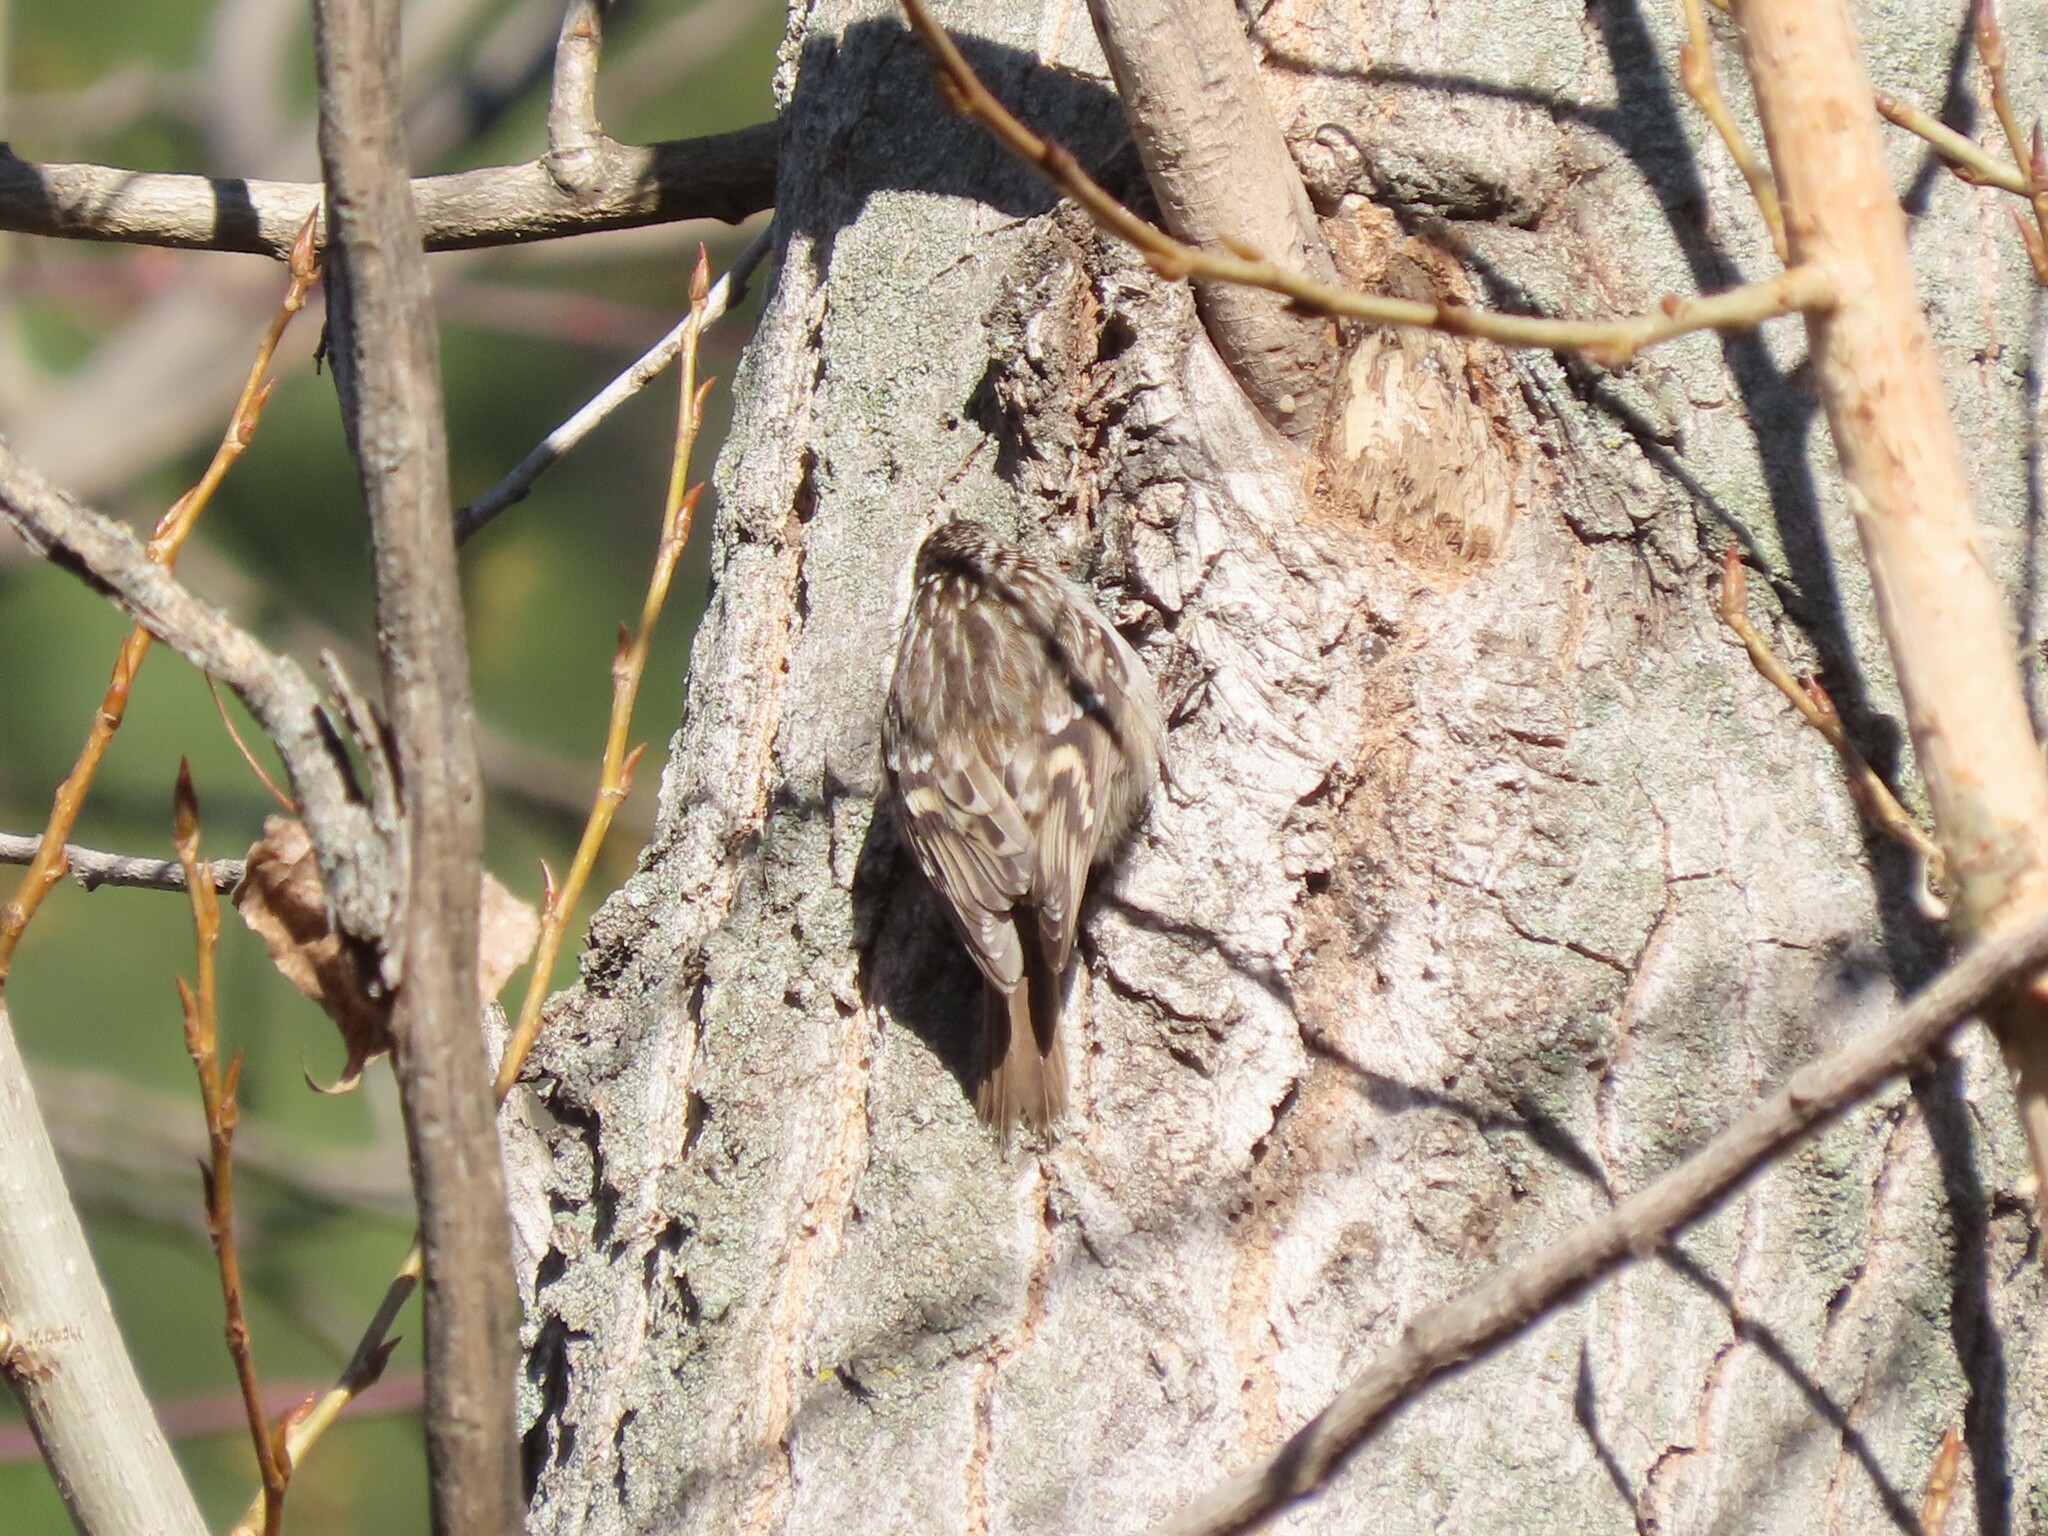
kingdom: Animalia
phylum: Chordata
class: Aves
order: Passeriformes
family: Certhiidae
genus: Certhia
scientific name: Certhia brachydactyla
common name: Short-toed treecreeper
